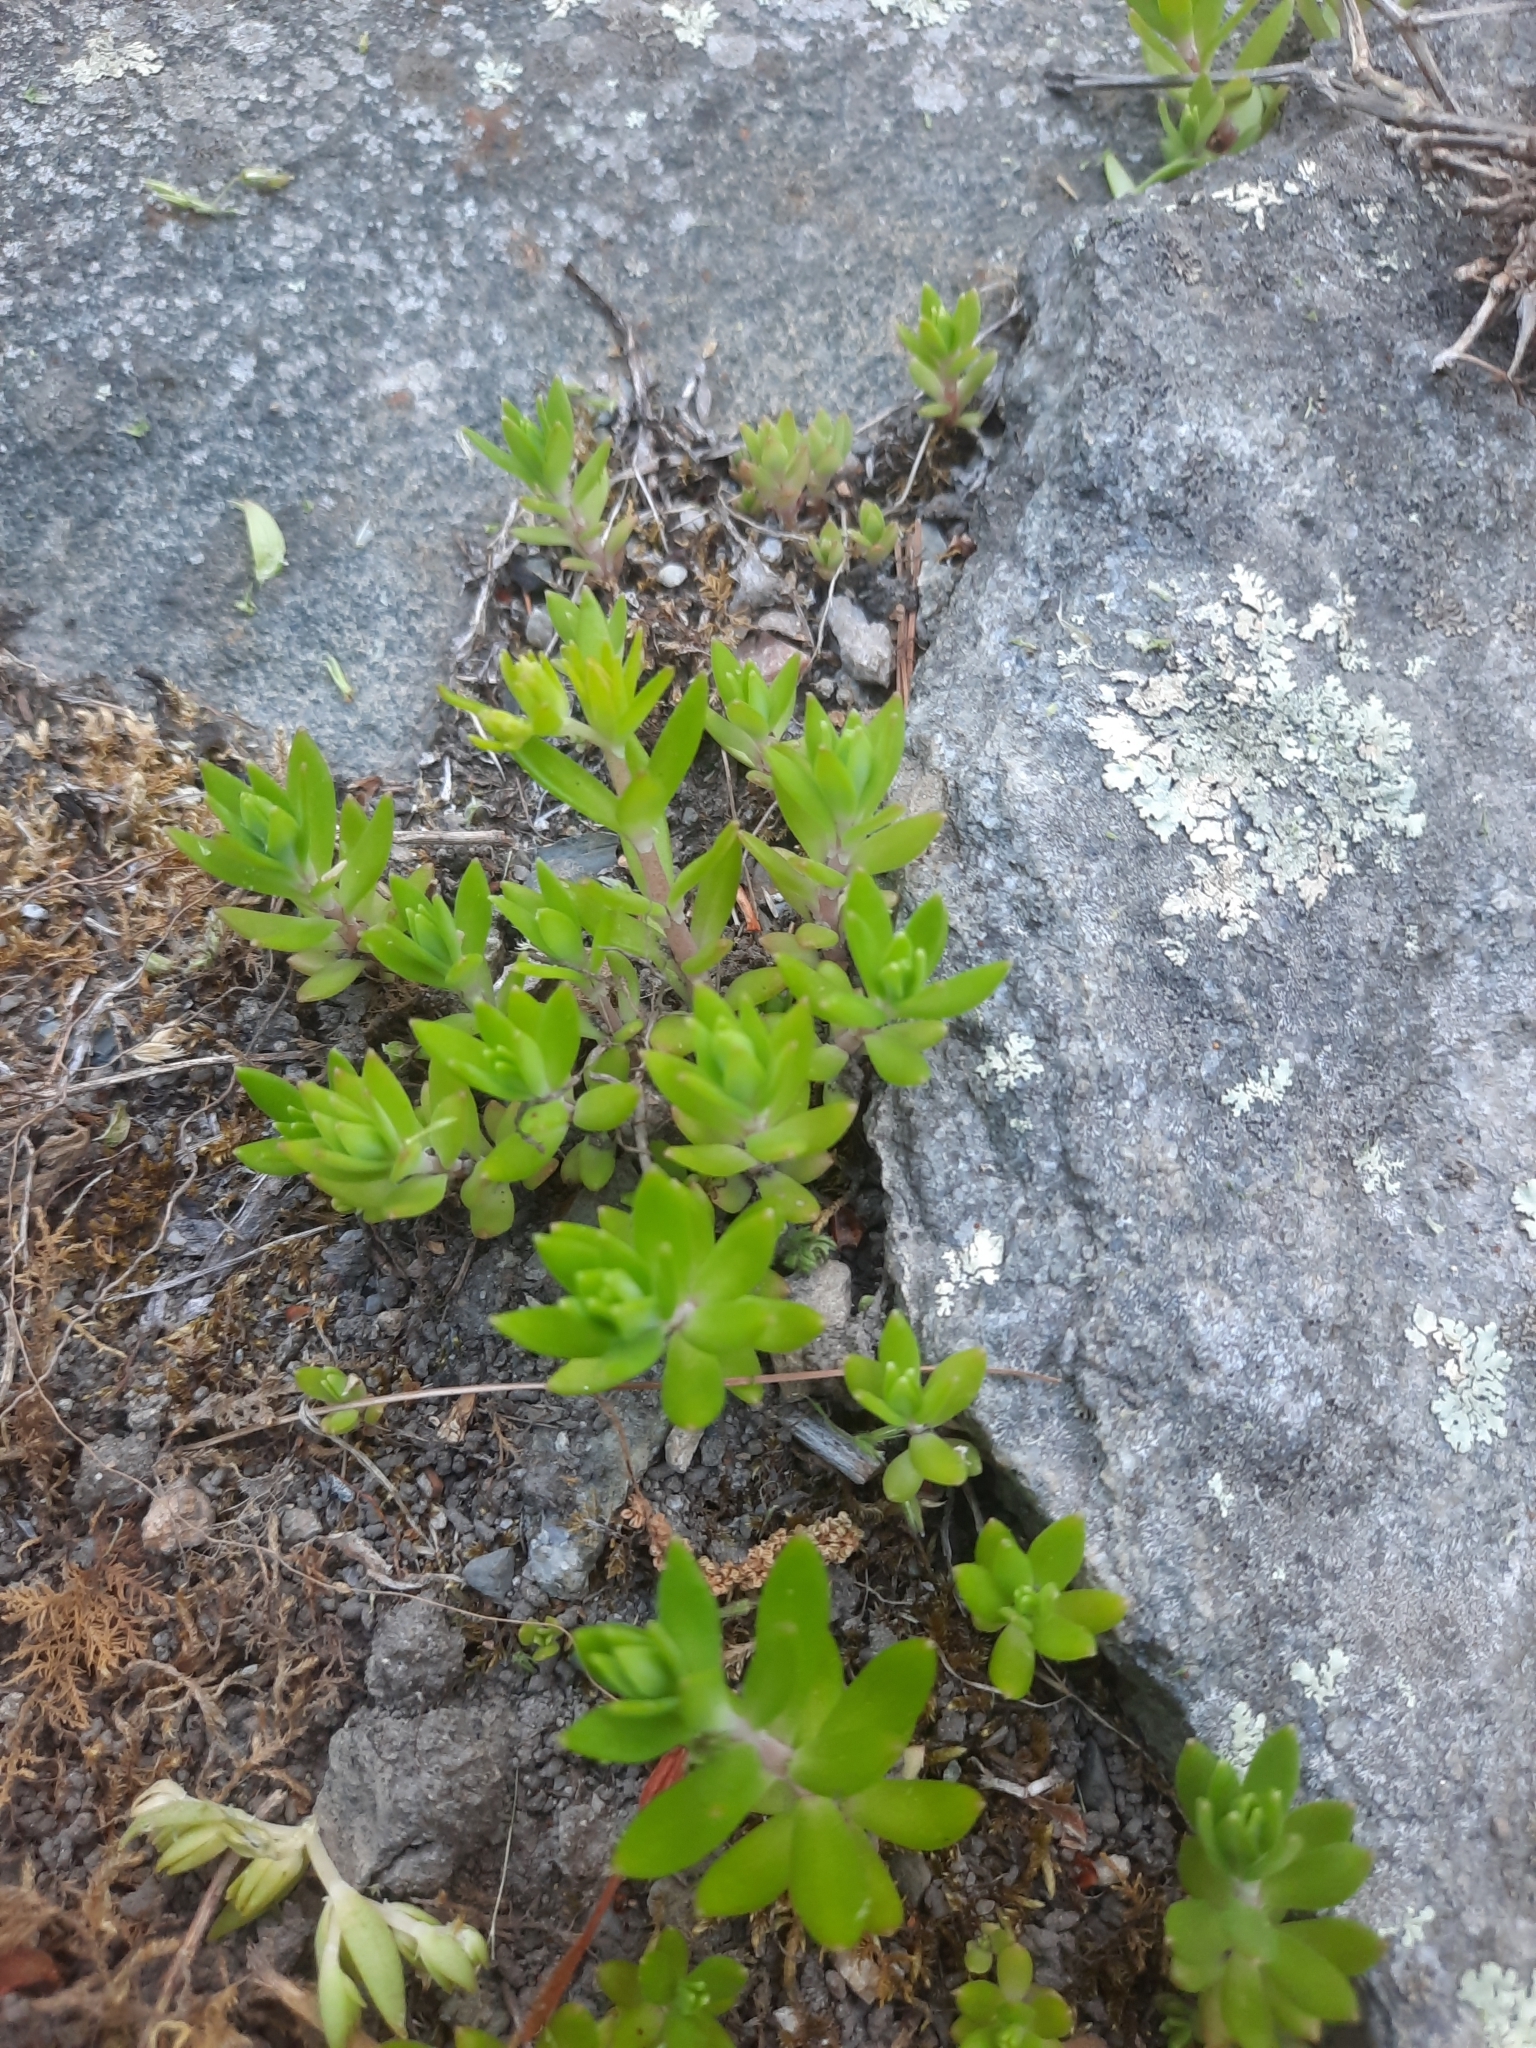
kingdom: Plantae
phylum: Tracheophyta
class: Magnoliopsida
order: Saxifragales
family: Crassulaceae
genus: Sedum
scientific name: Sedum sarmentosum
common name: Stringy stonecrop
